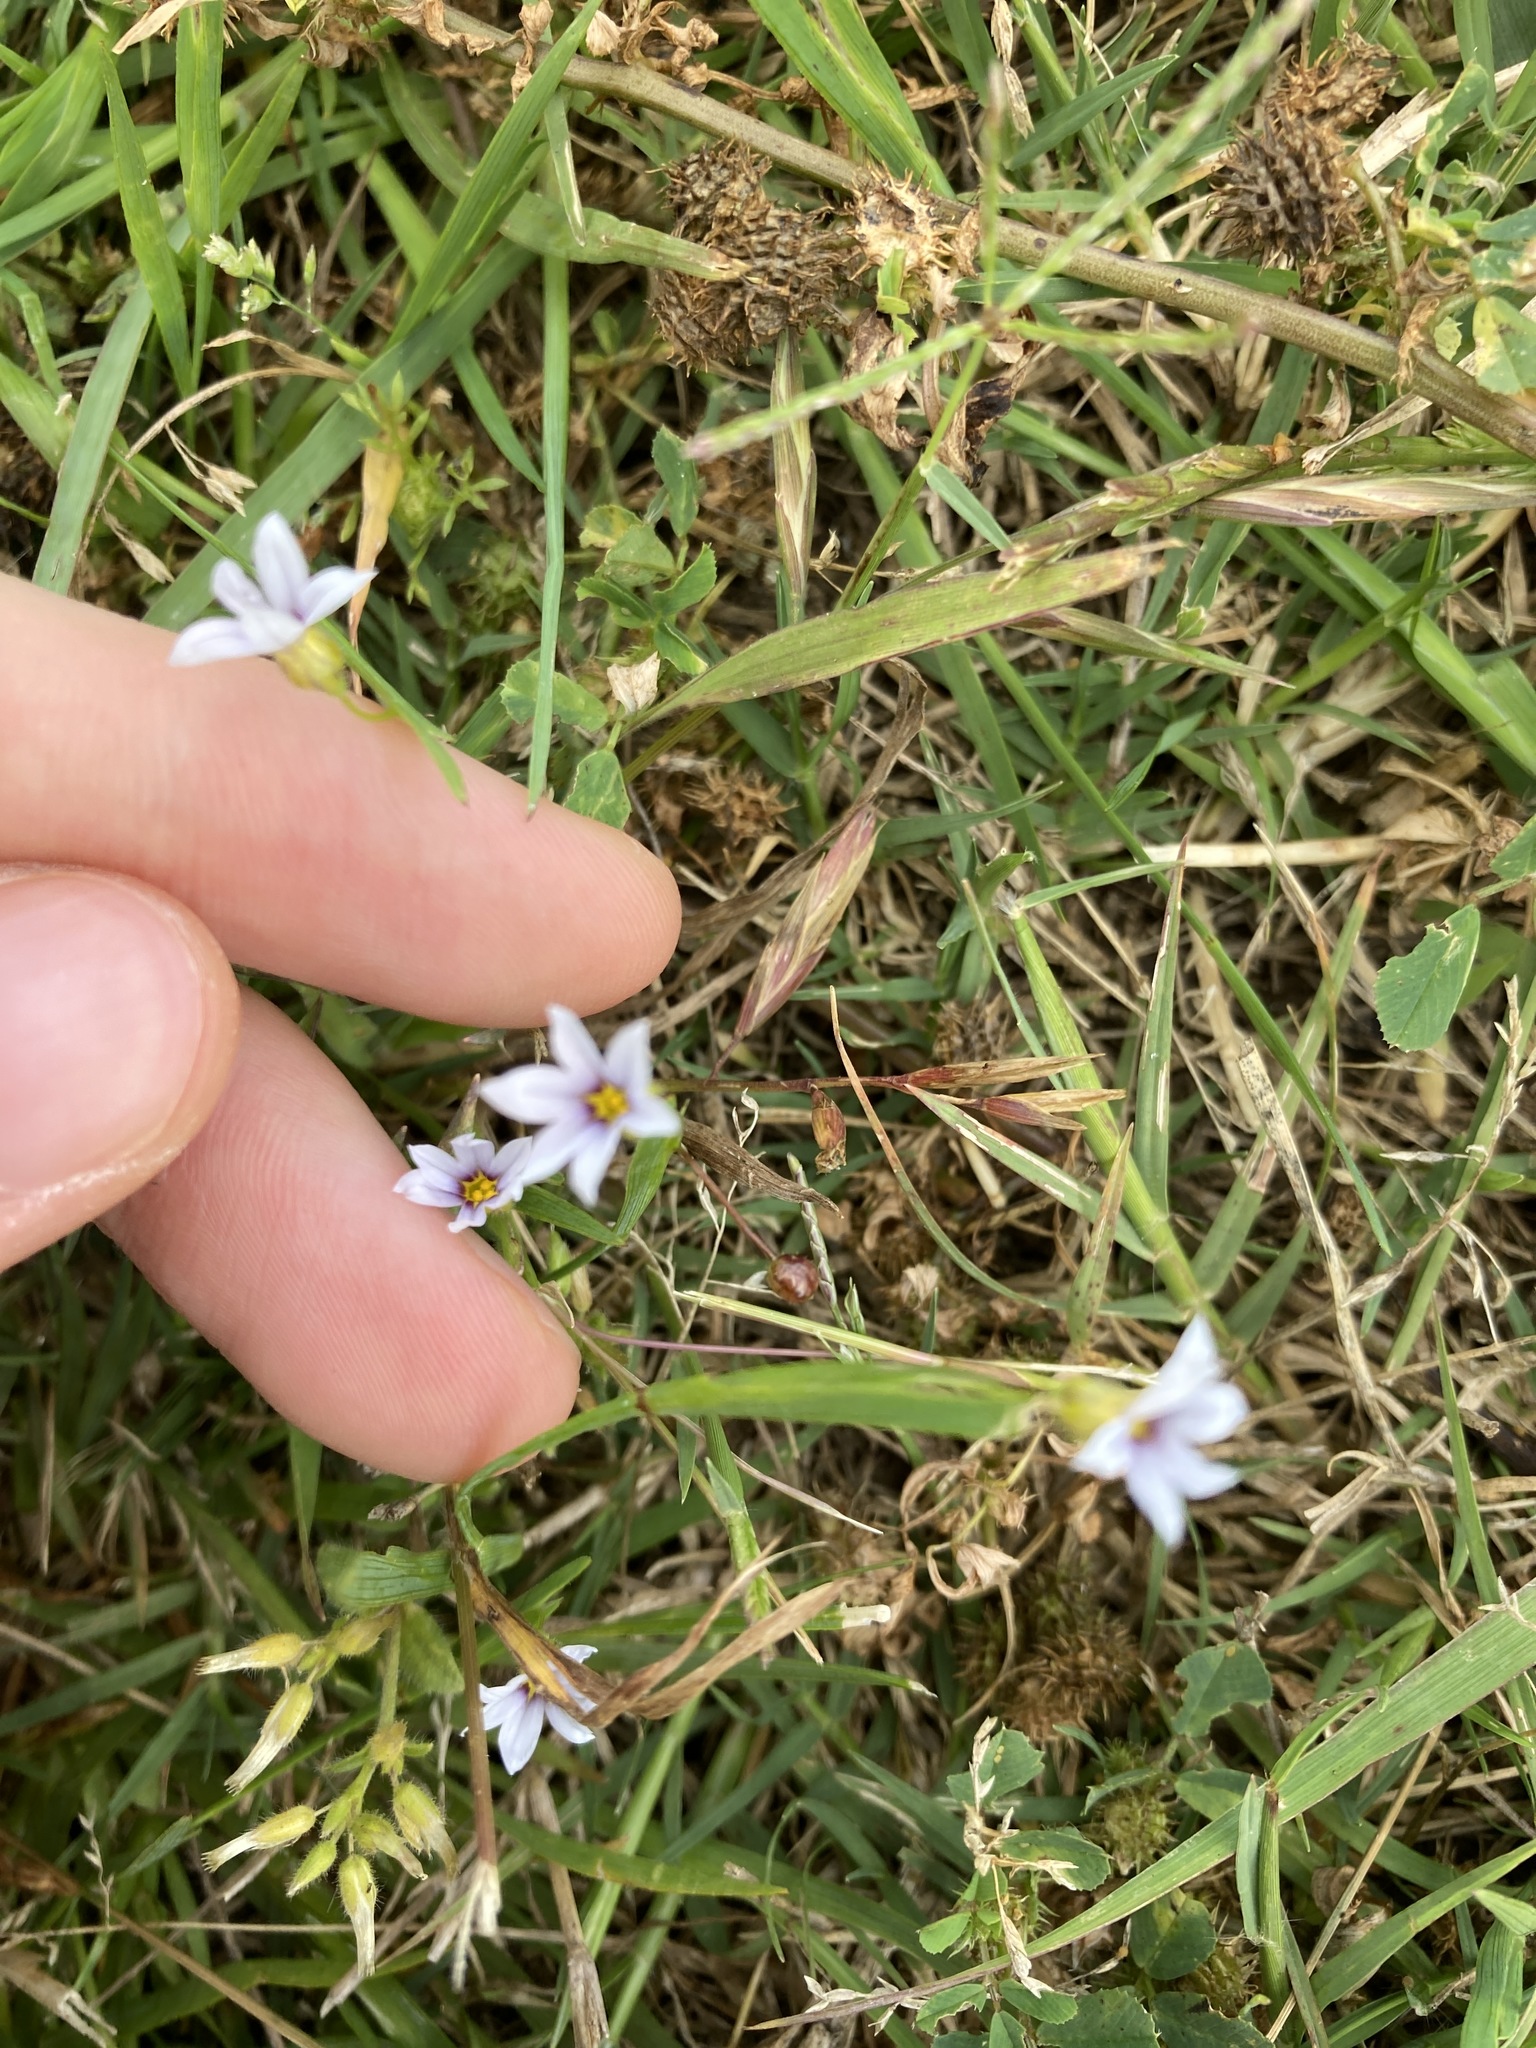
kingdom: Plantae
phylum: Tracheophyta
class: Liliopsida
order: Asparagales
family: Iridaceae
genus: Sisyrinchium
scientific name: Sisyrinchium micranthum
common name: Bermuda pigroot
